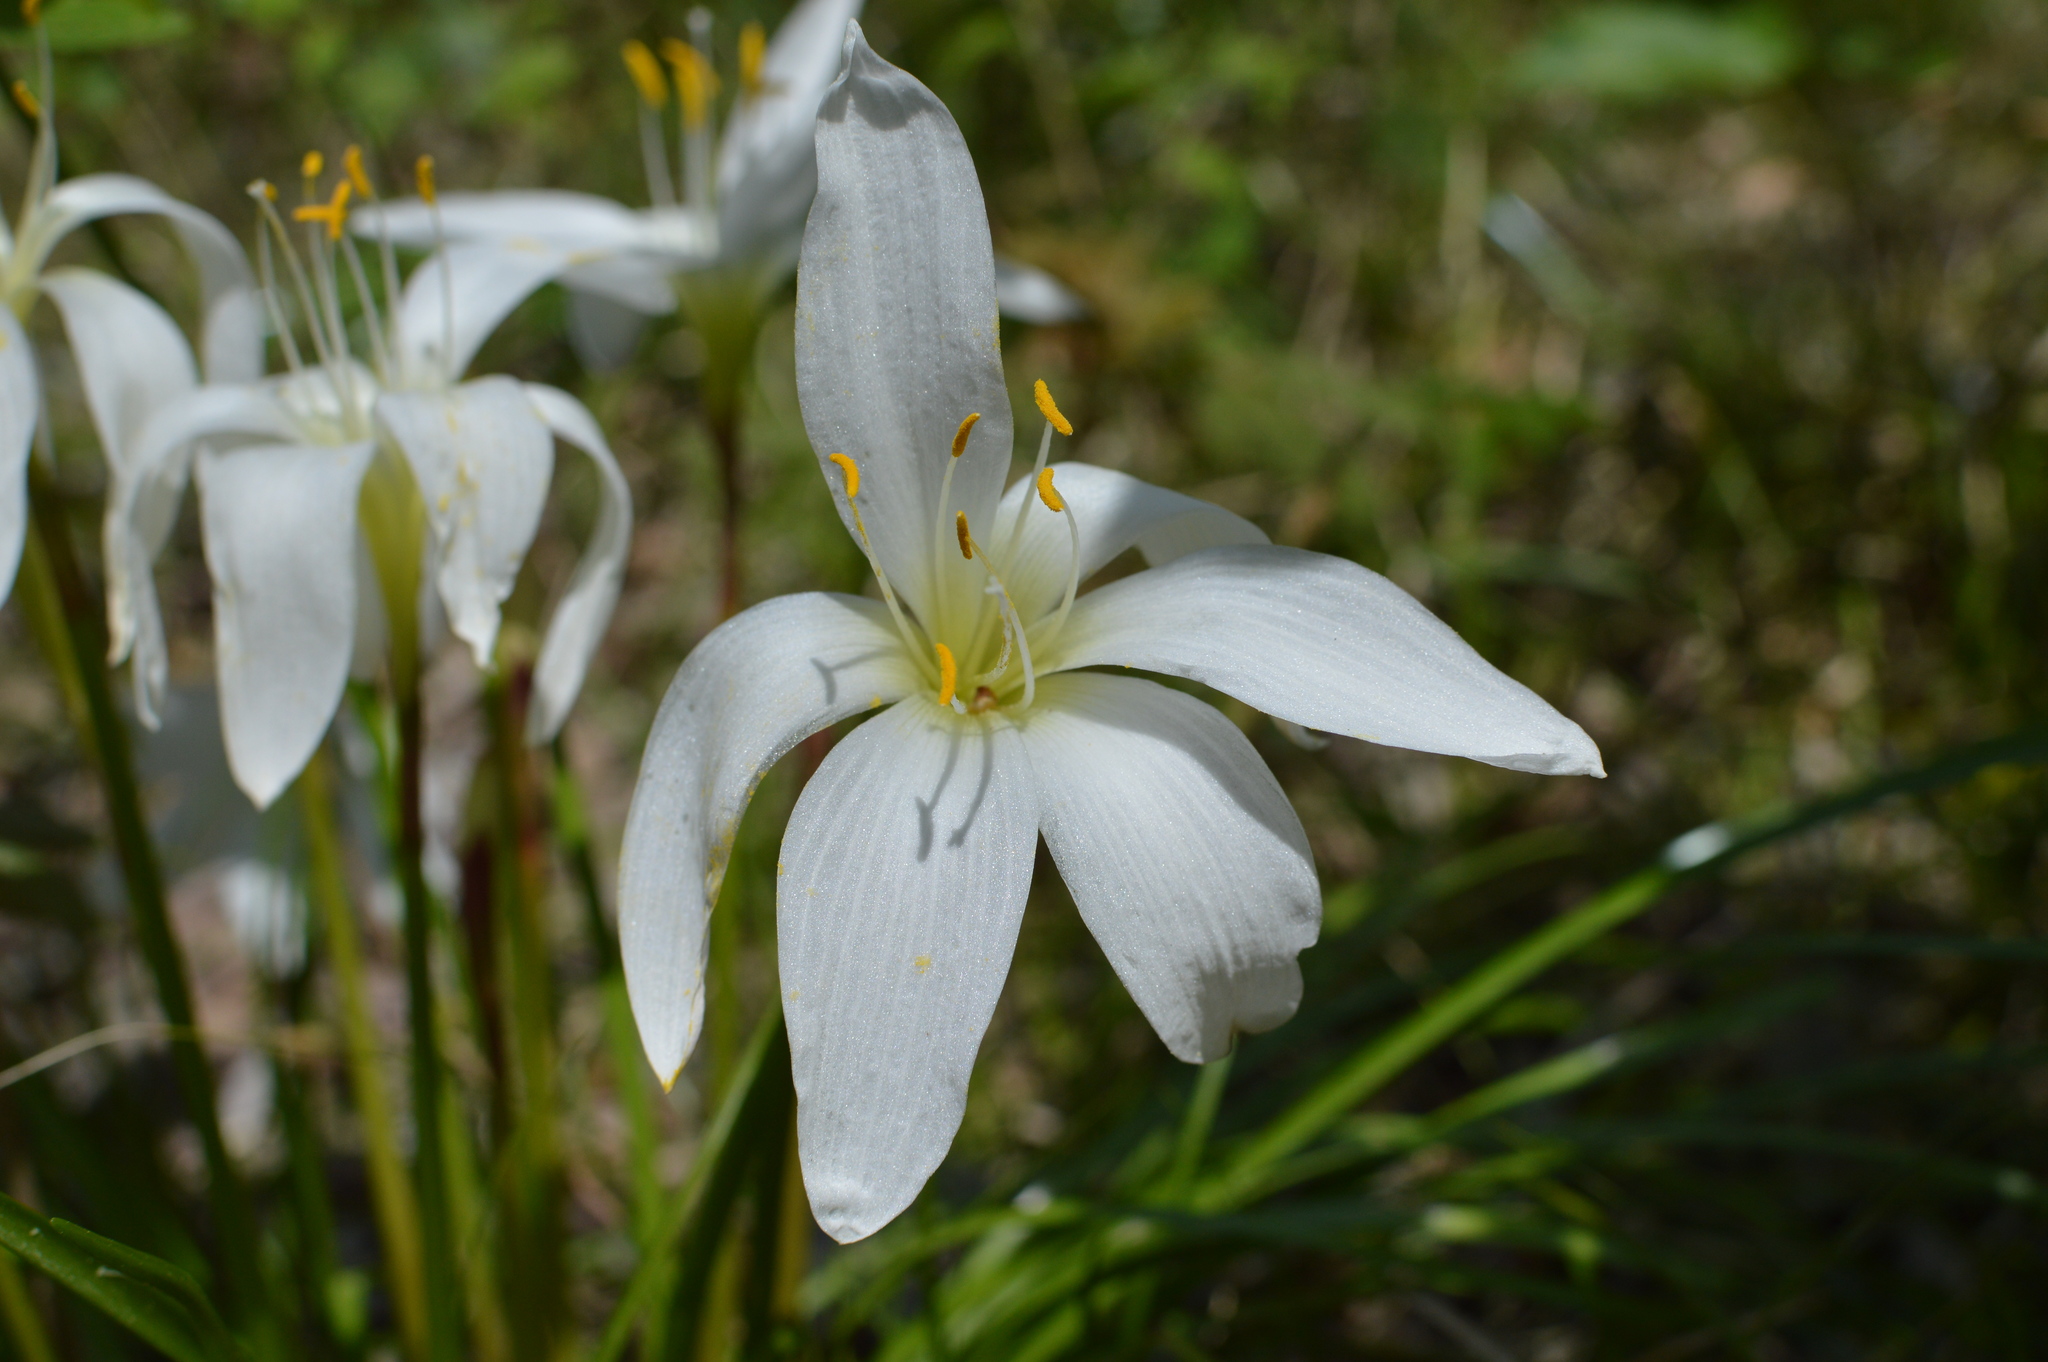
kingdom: Plantae
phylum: Tracheophyta
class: Liliopsida
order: Asparagales
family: Amaryllidaceae
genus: Zephyranthes
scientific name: Zephyranthes atamasco
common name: Atamasco lily
